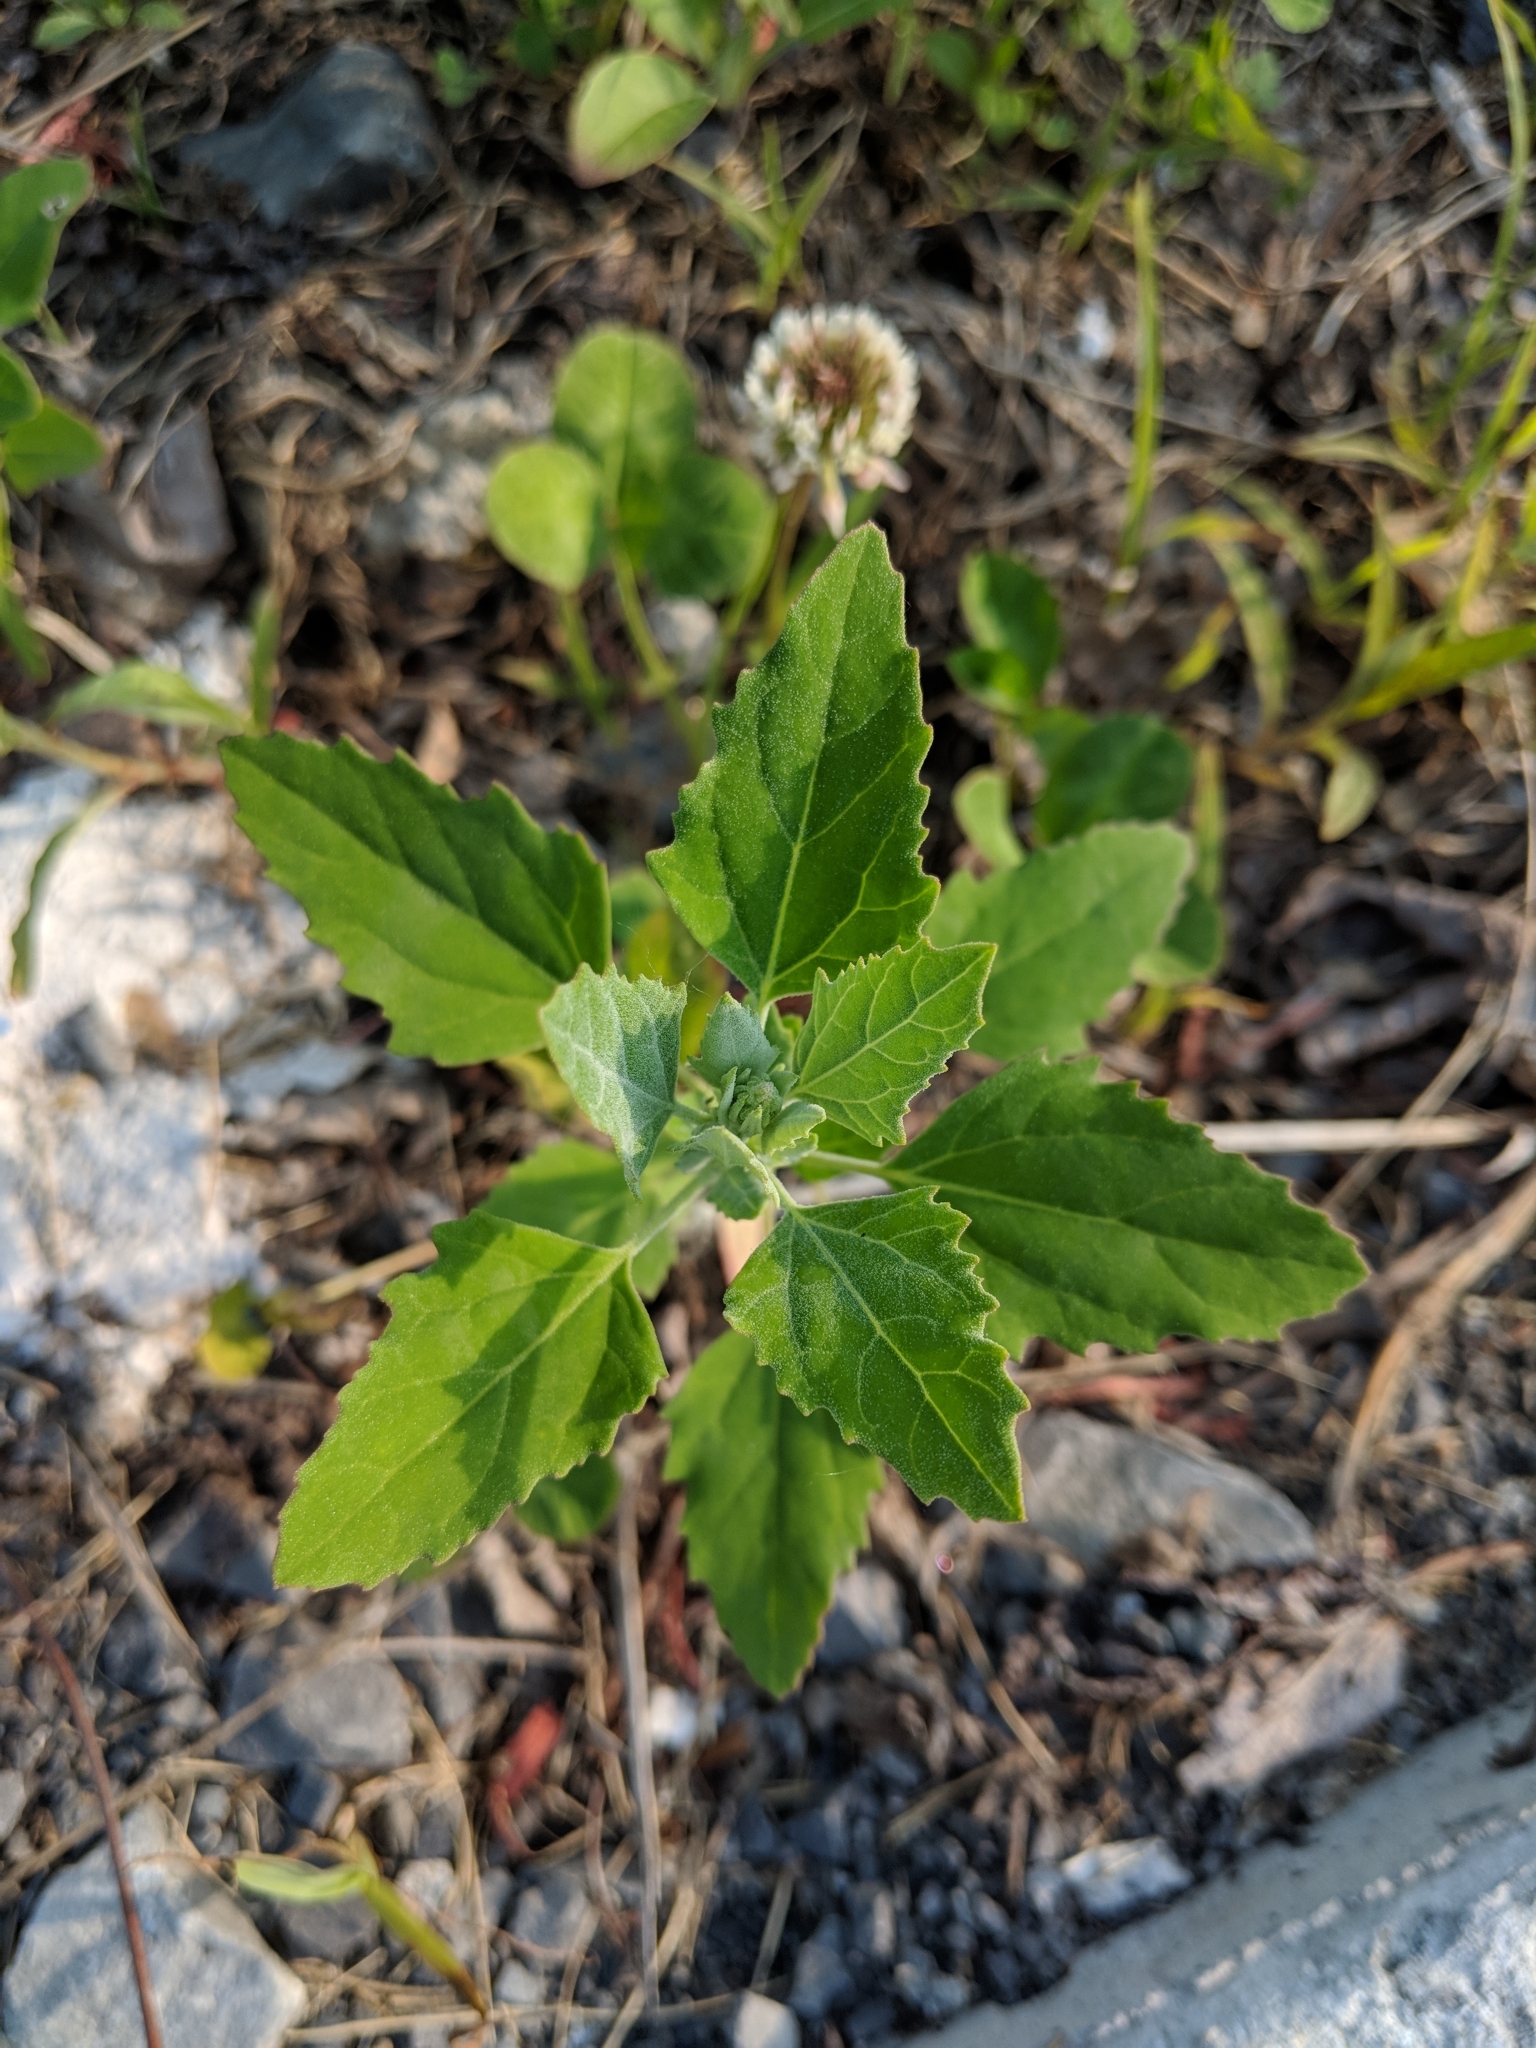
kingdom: Plantae
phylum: Tracheophyta
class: Magnoliopsida
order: Caryophyllales
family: Amaranthaceae
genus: Chenopodium
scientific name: Chenopodium album
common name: Fat-hen
